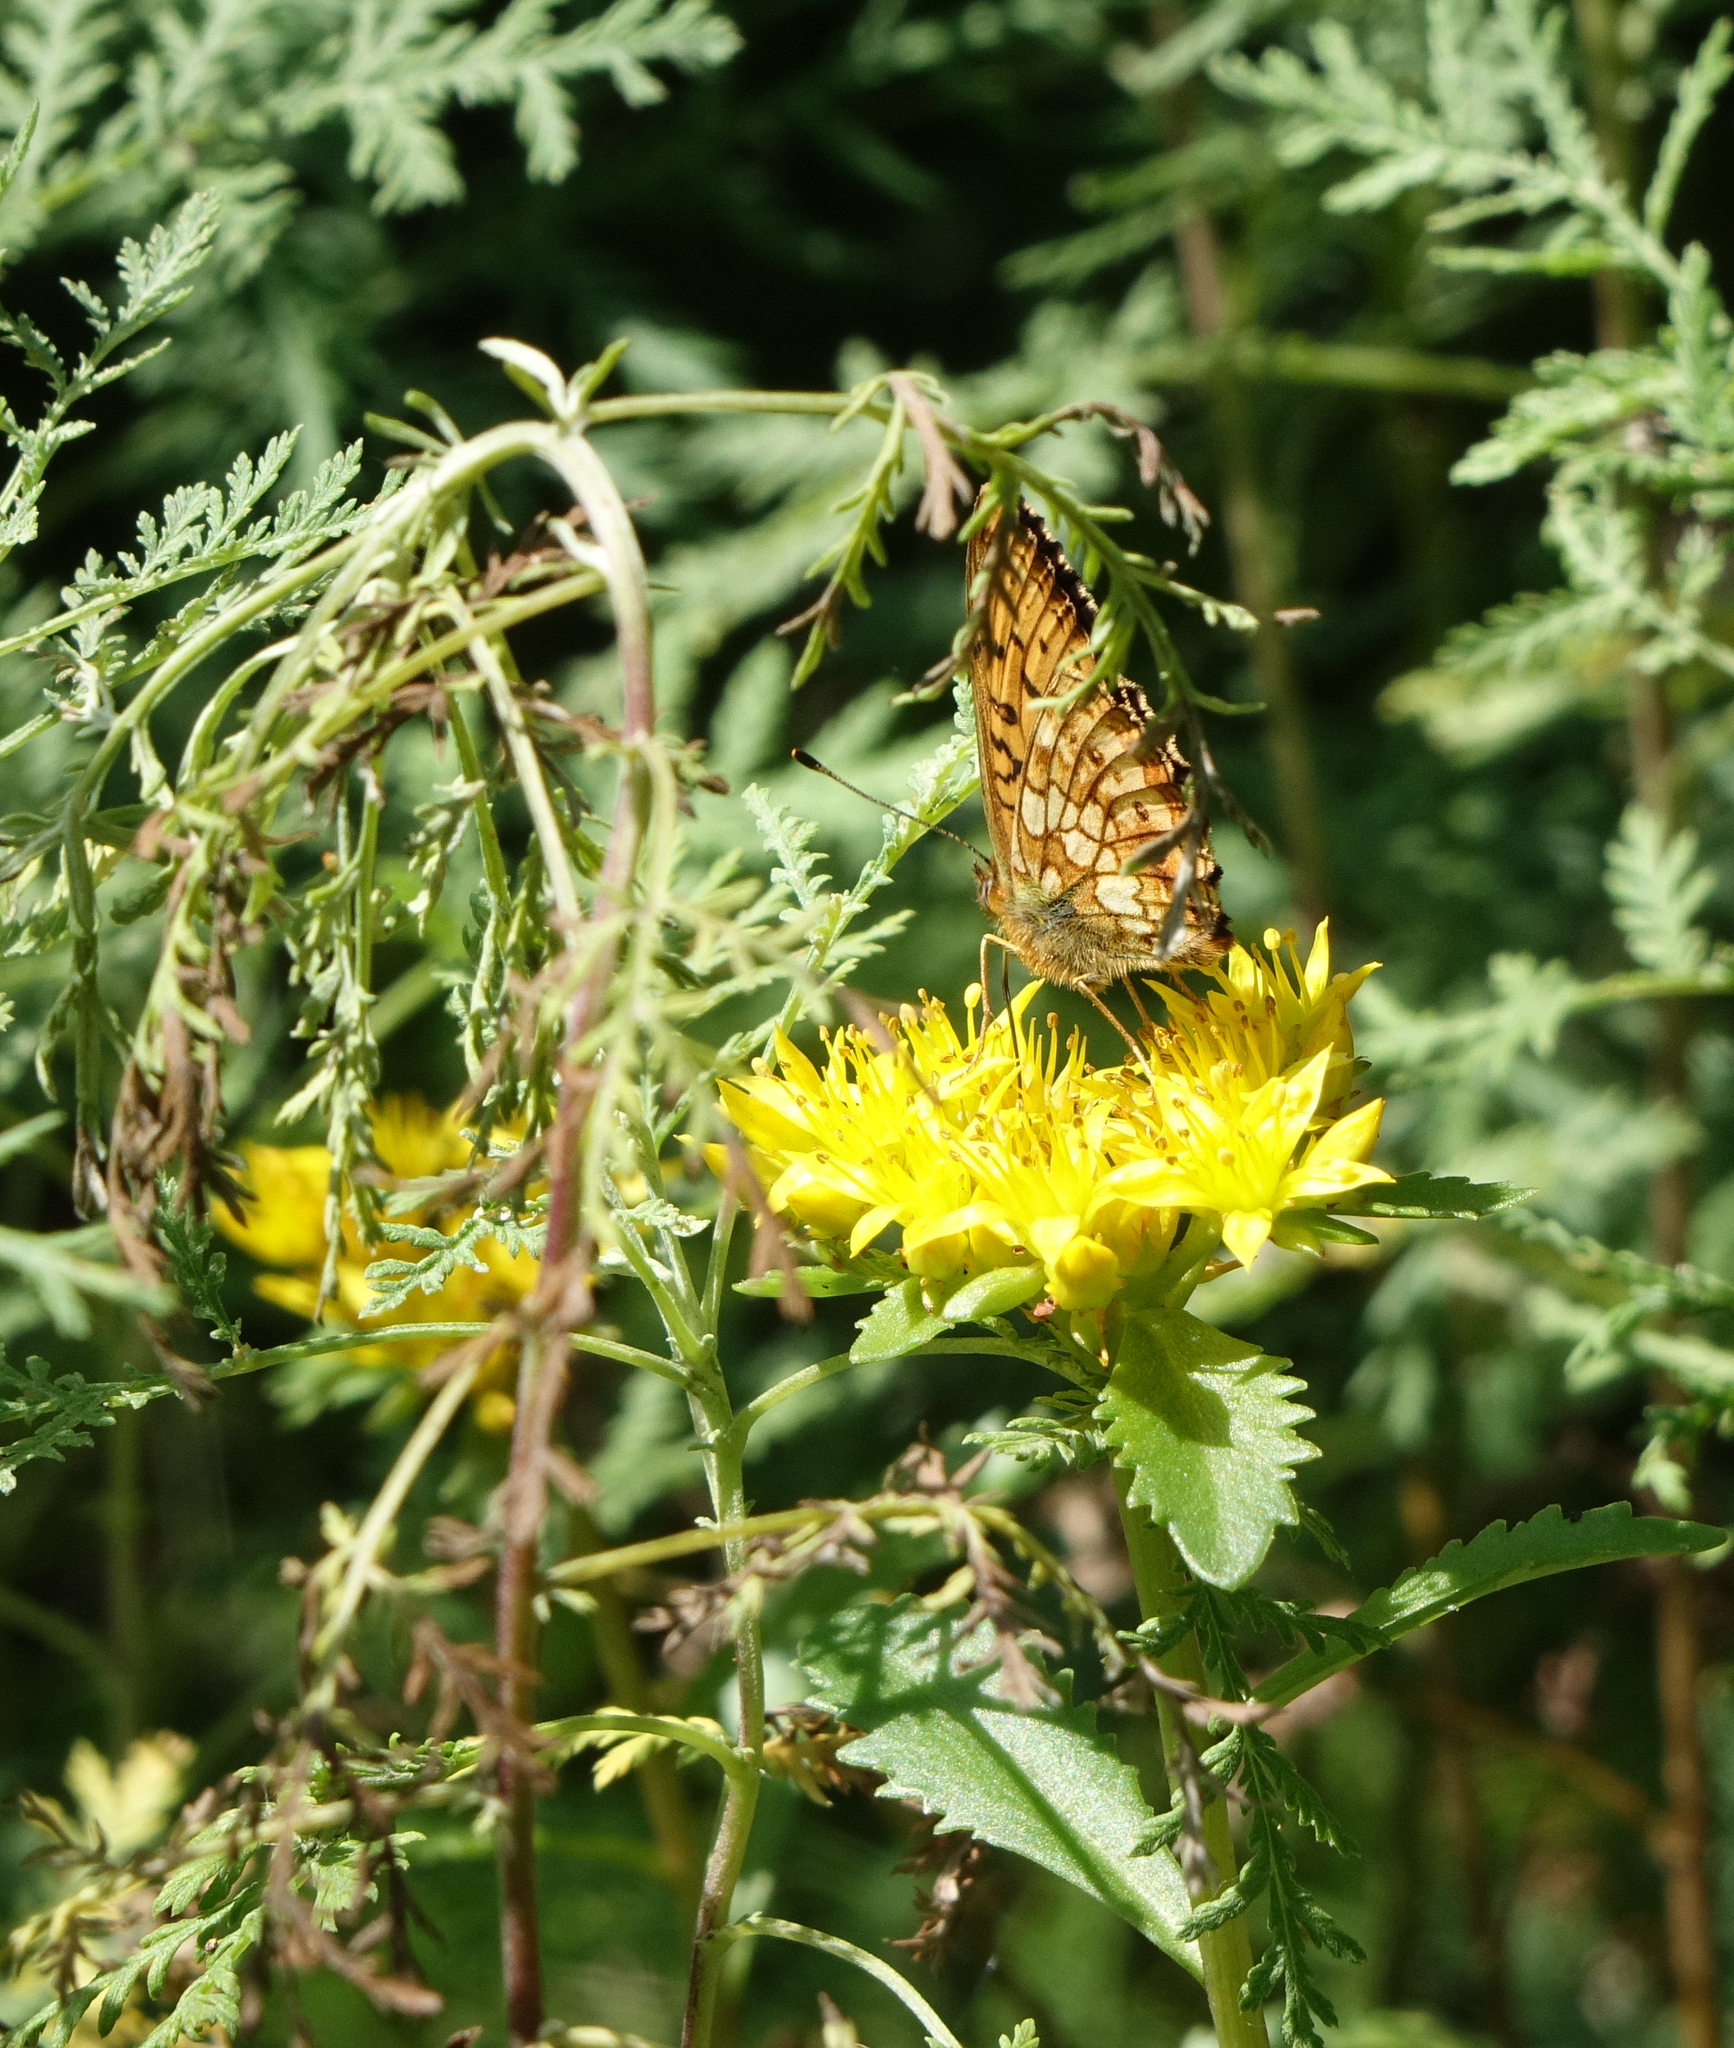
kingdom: Plantae
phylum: Tracheophyta
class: Magnoliopsida
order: Saxifragales
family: Crassulaceae
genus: Phedimus
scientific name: Phedimus aizoon
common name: Orpin aizoon
